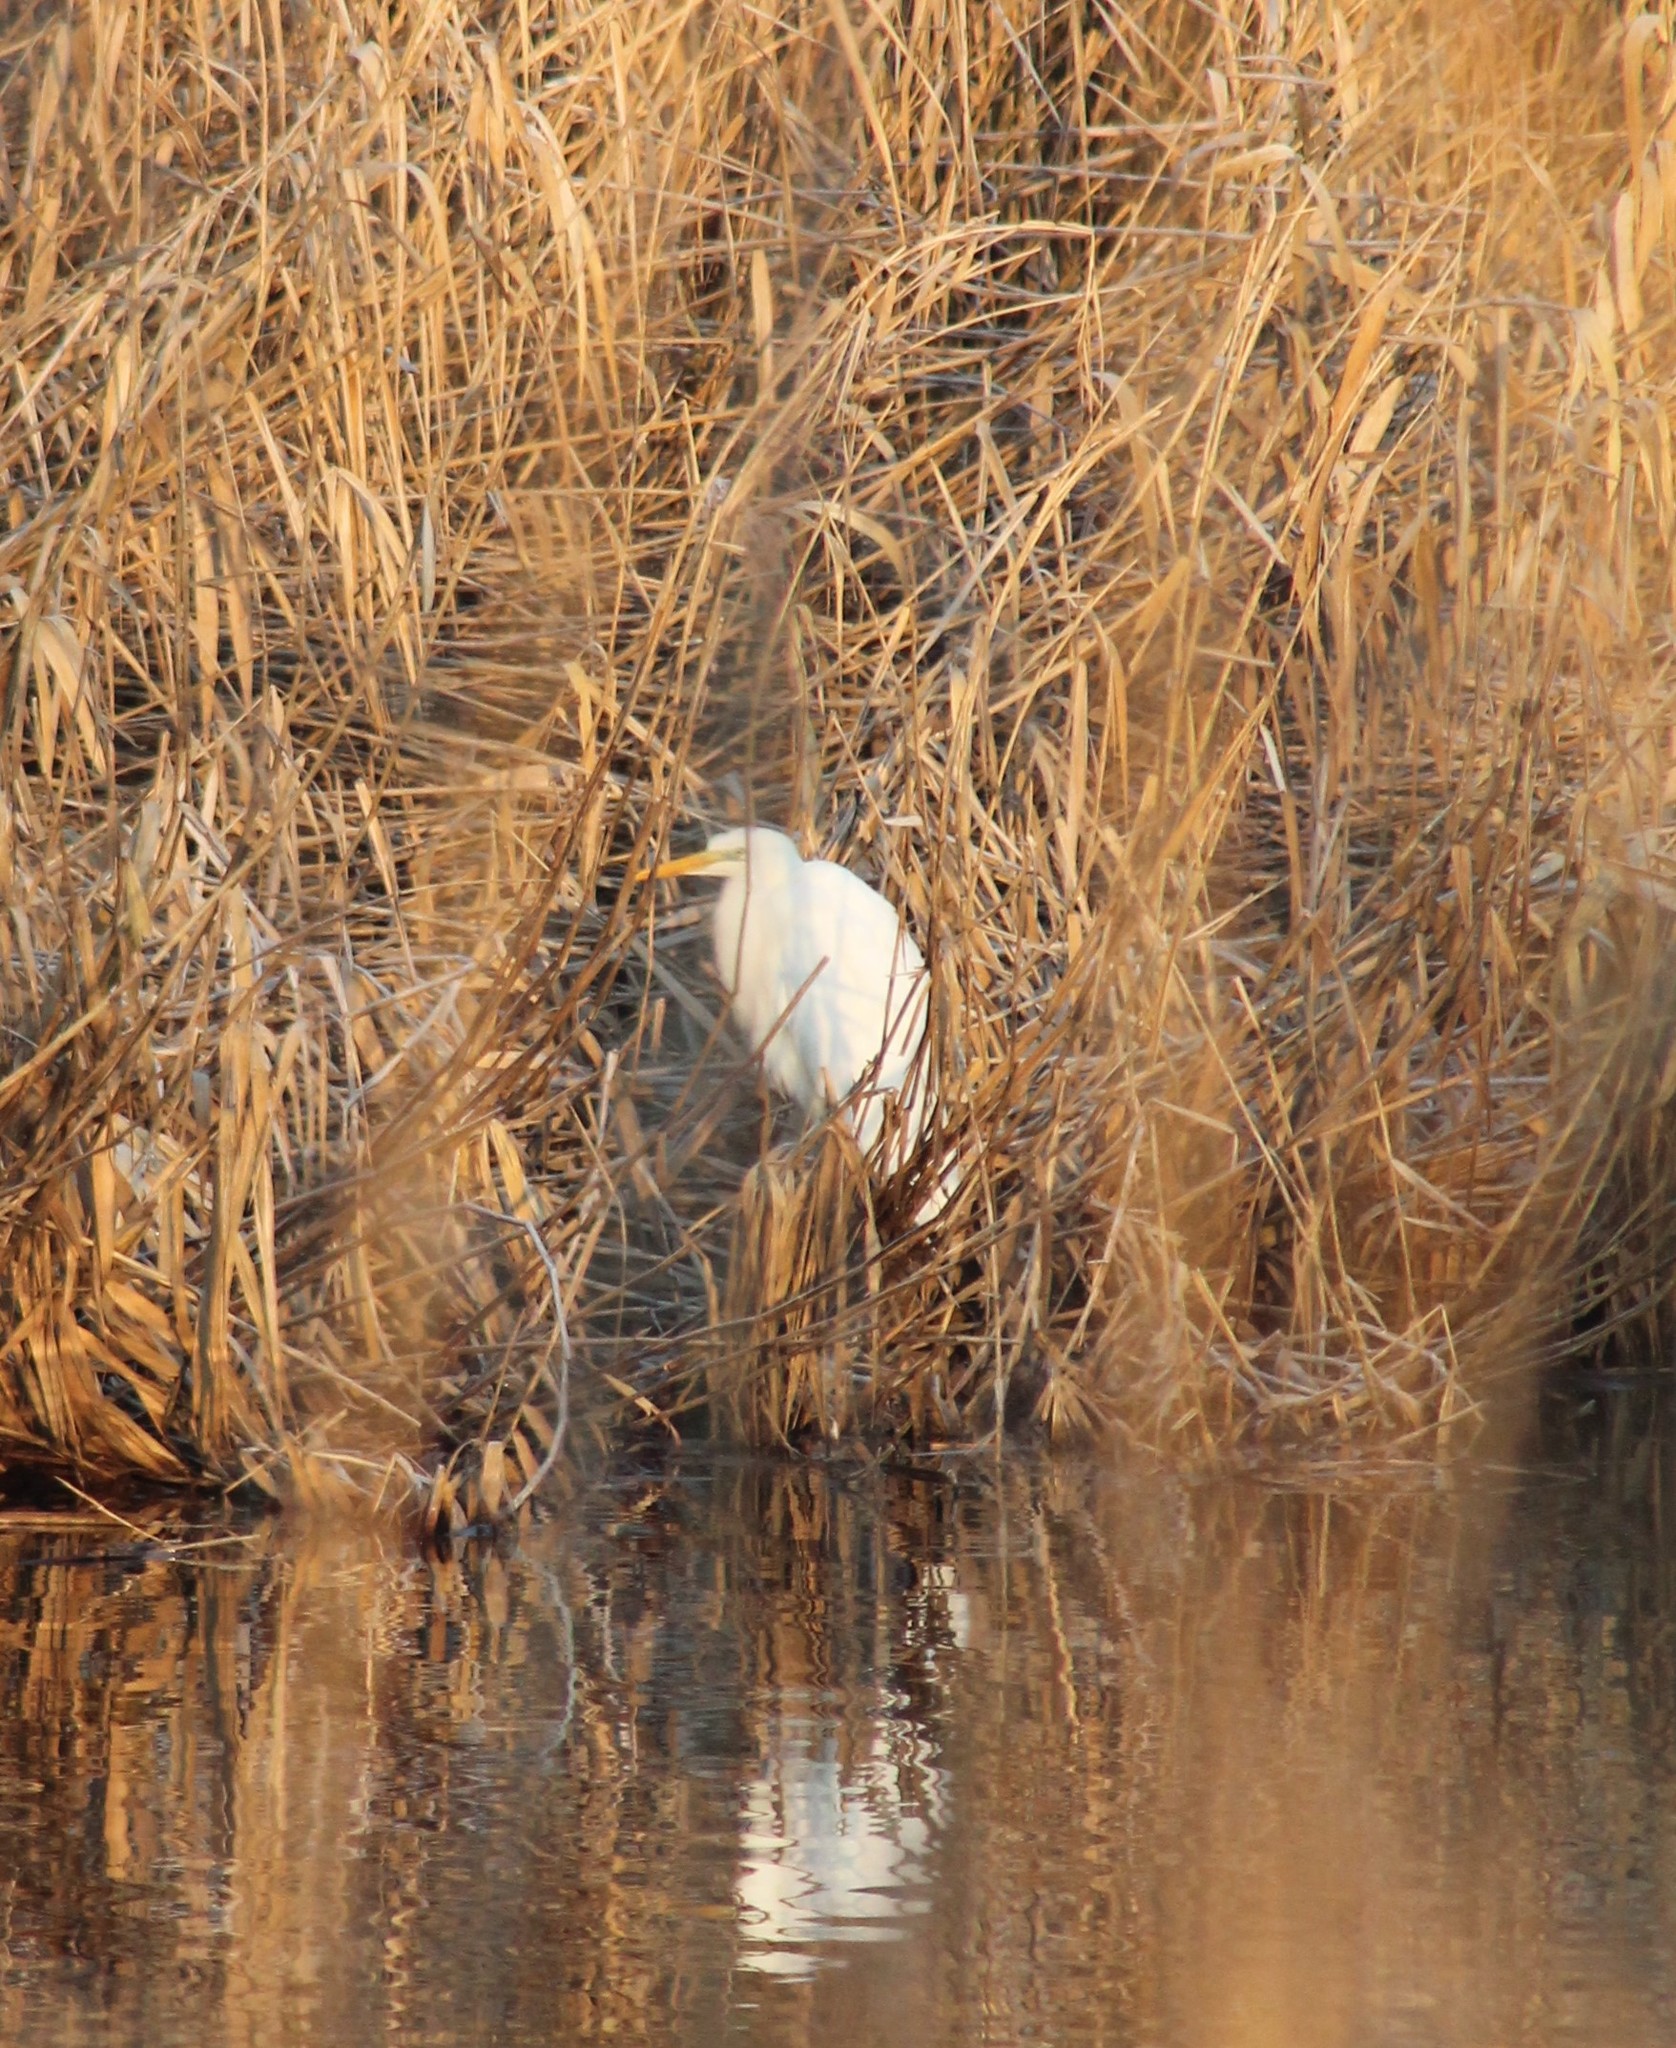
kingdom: Animalia
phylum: Chordata
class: Aves
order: Pelecaniformes
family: Ardeidae
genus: Ardea
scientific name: Ardea alba
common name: Great egret
